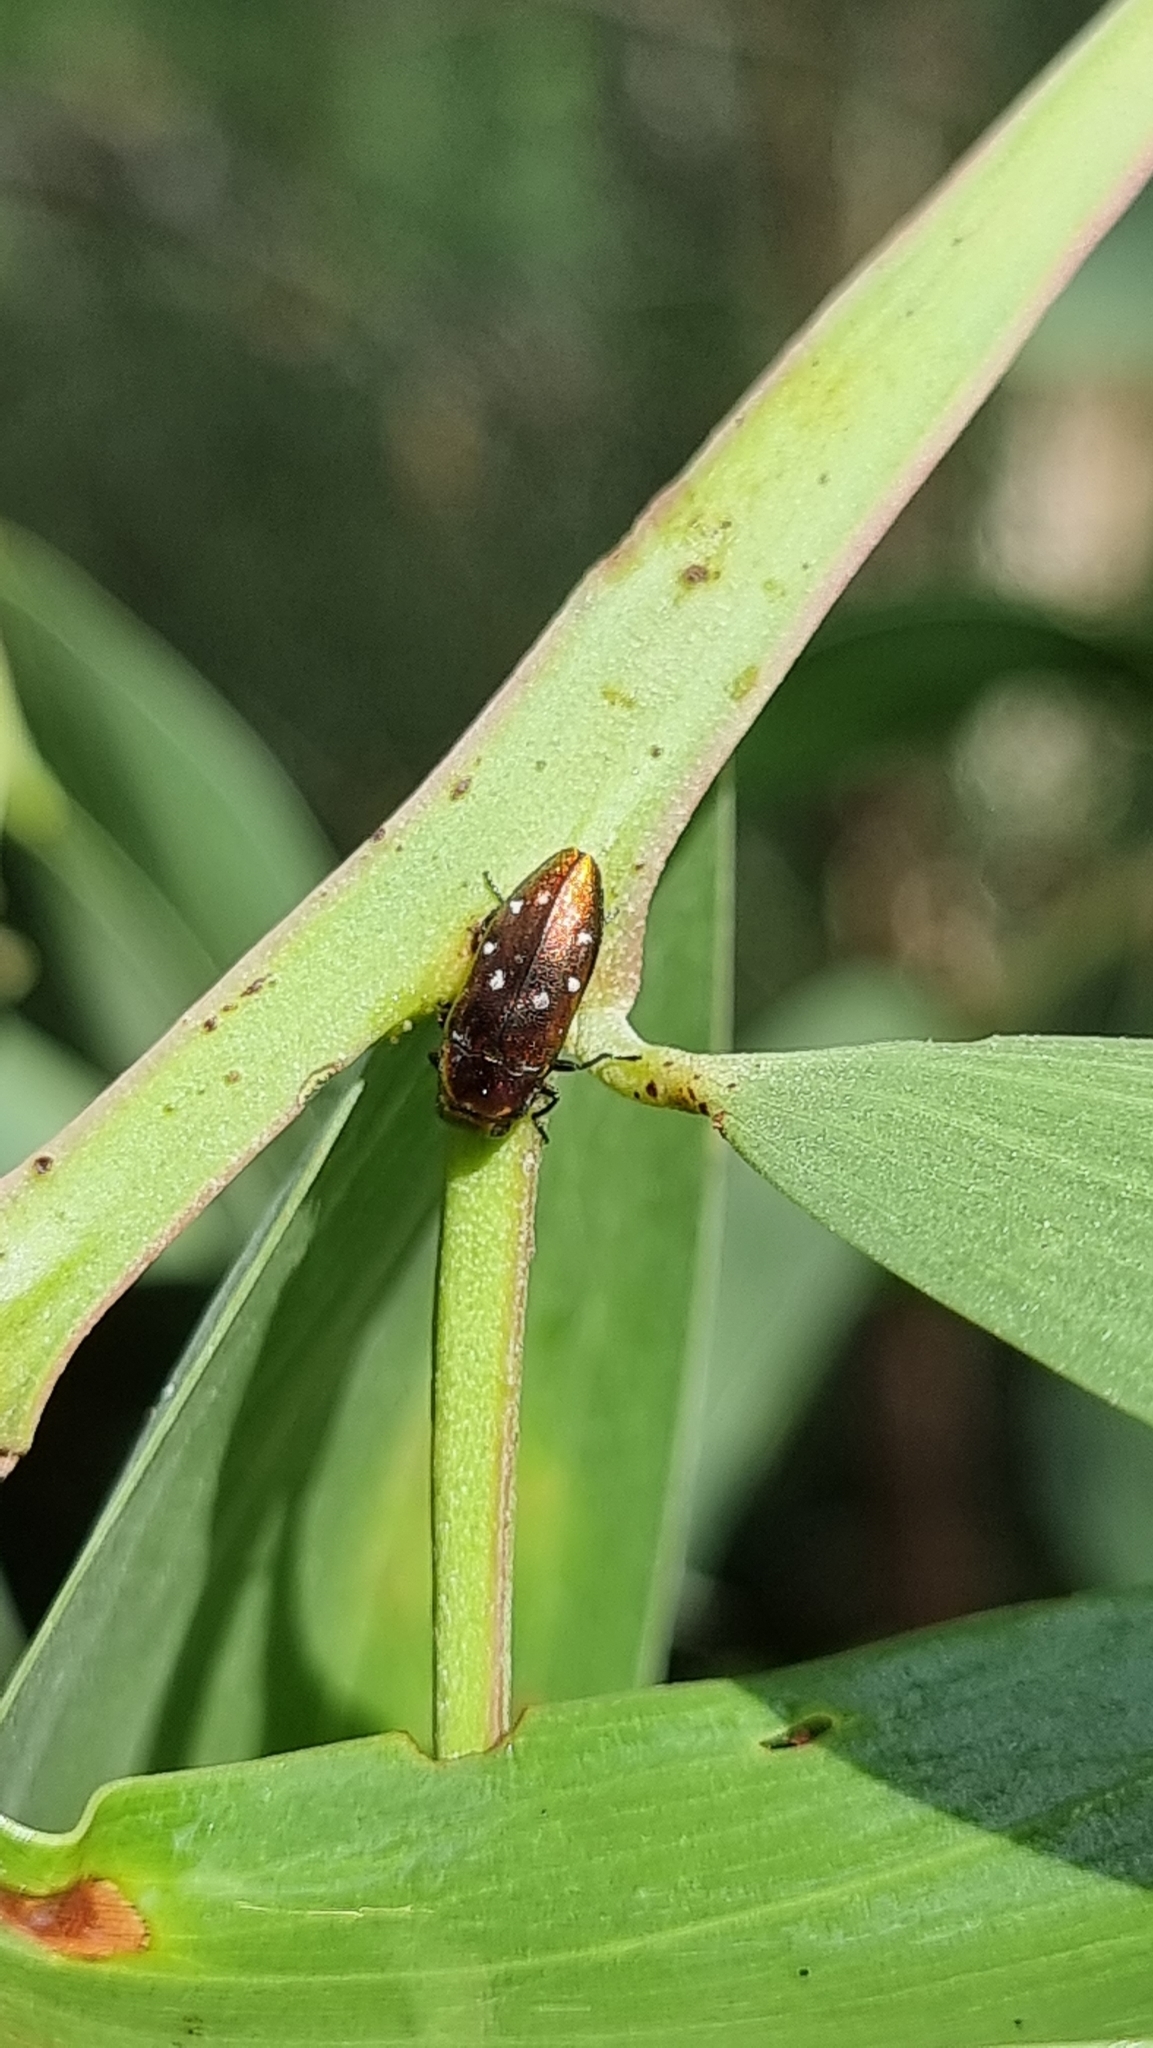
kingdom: Animalia
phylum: Arthropoda
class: Insecta
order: Coleoptera
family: Buprestidae
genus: Diphucrania
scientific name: Diphucrania albosparsa
